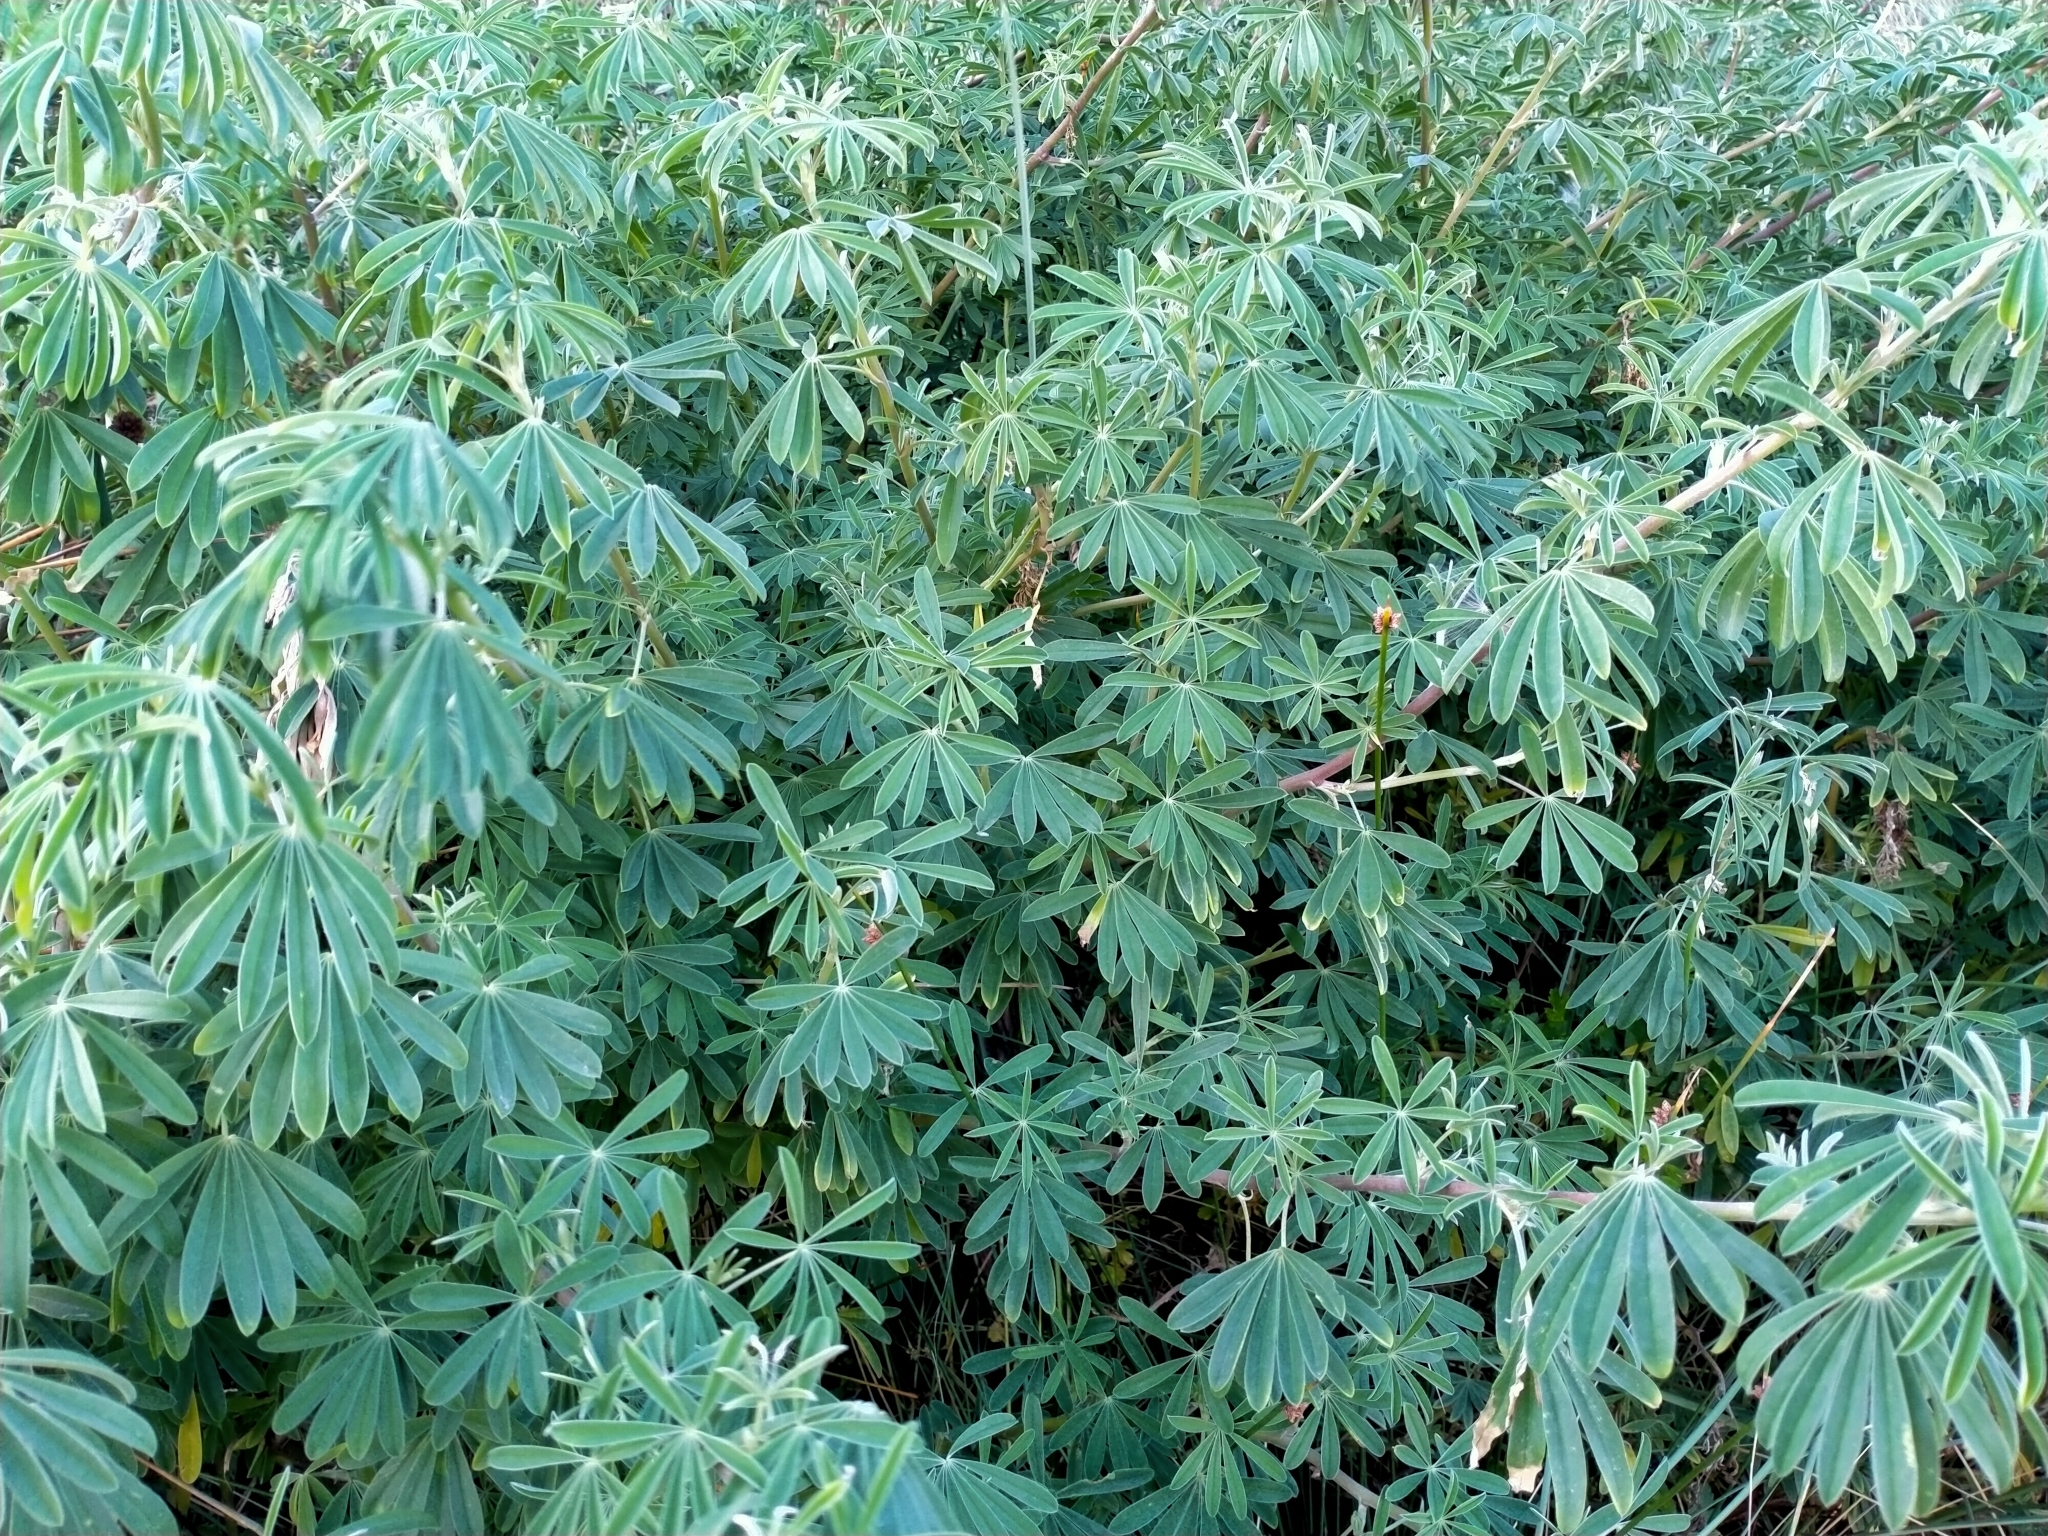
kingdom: Plantae
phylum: Tracheophyta
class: Magnoliopsida
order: Fabales
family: Fabaceae
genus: Lupinus
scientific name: Lupinus arboreus
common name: Yellow bush lupine
